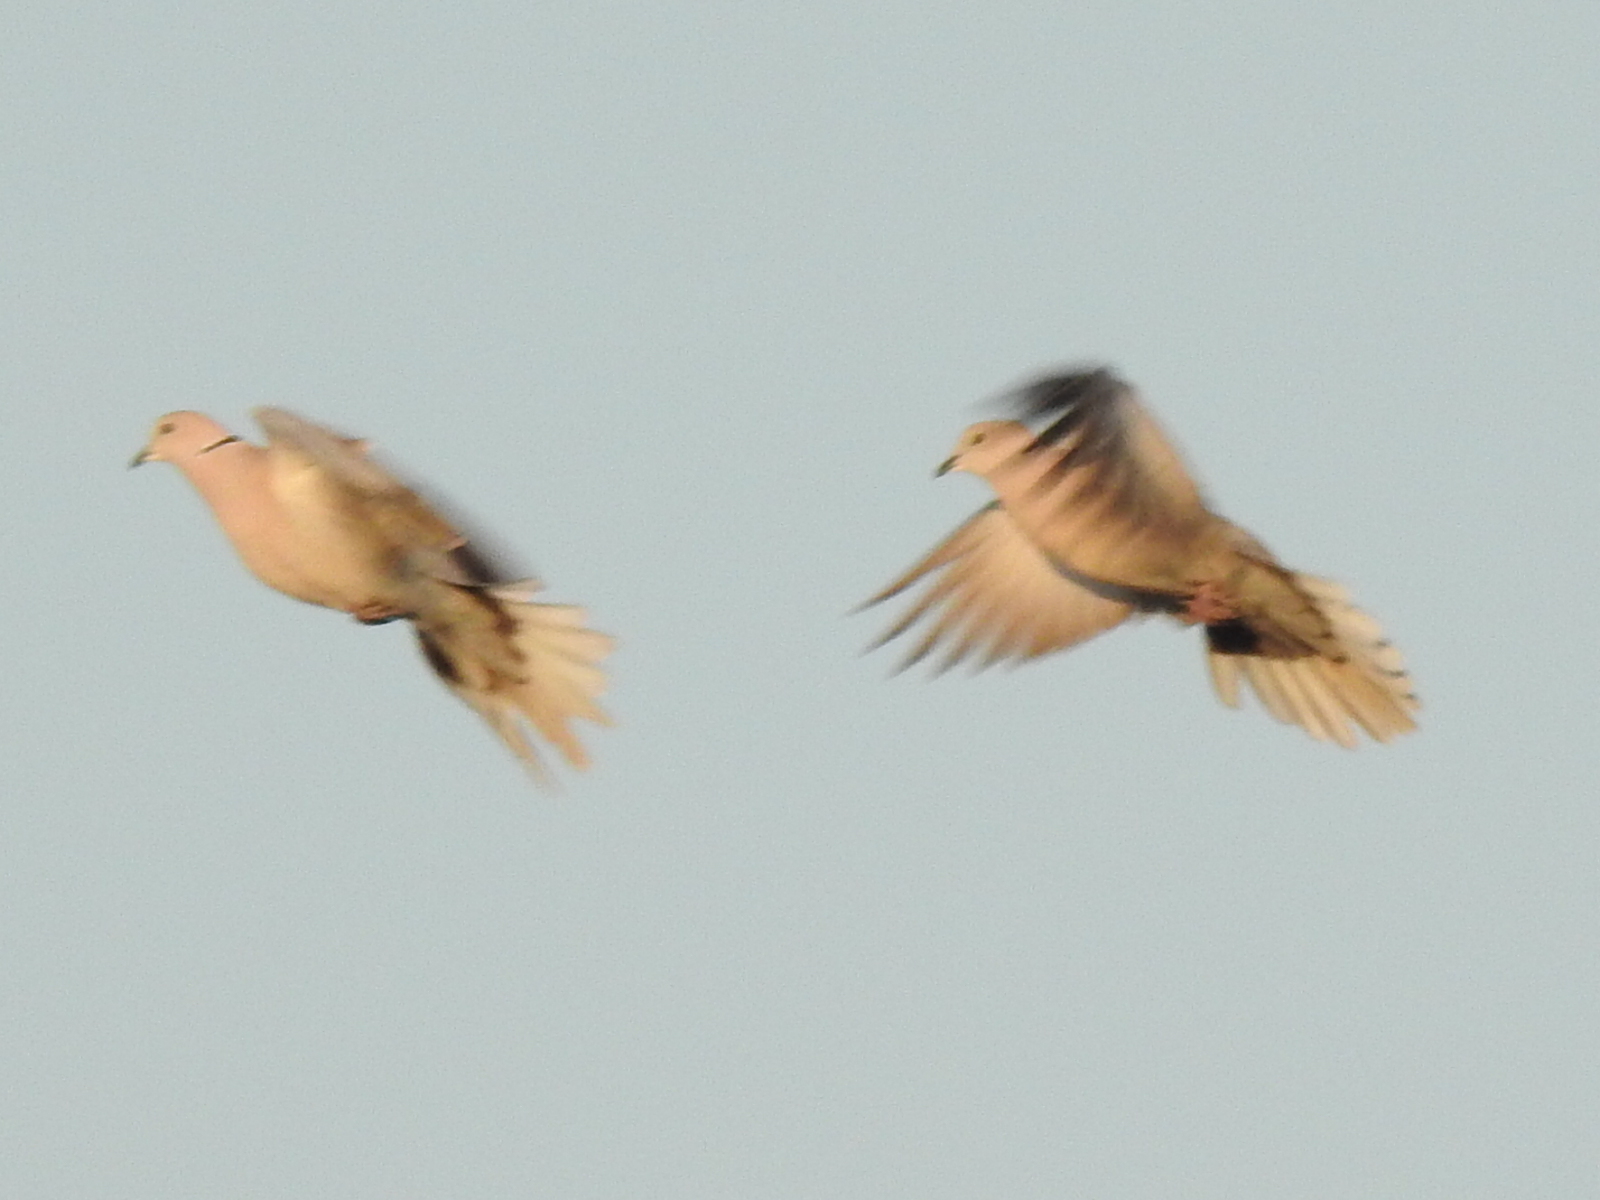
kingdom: Animalia
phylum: Chordata
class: Aves
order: Columbiformes
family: Columbidae
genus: Streptopelia
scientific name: Streptopelia decaocto
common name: Eurasian collared dove
